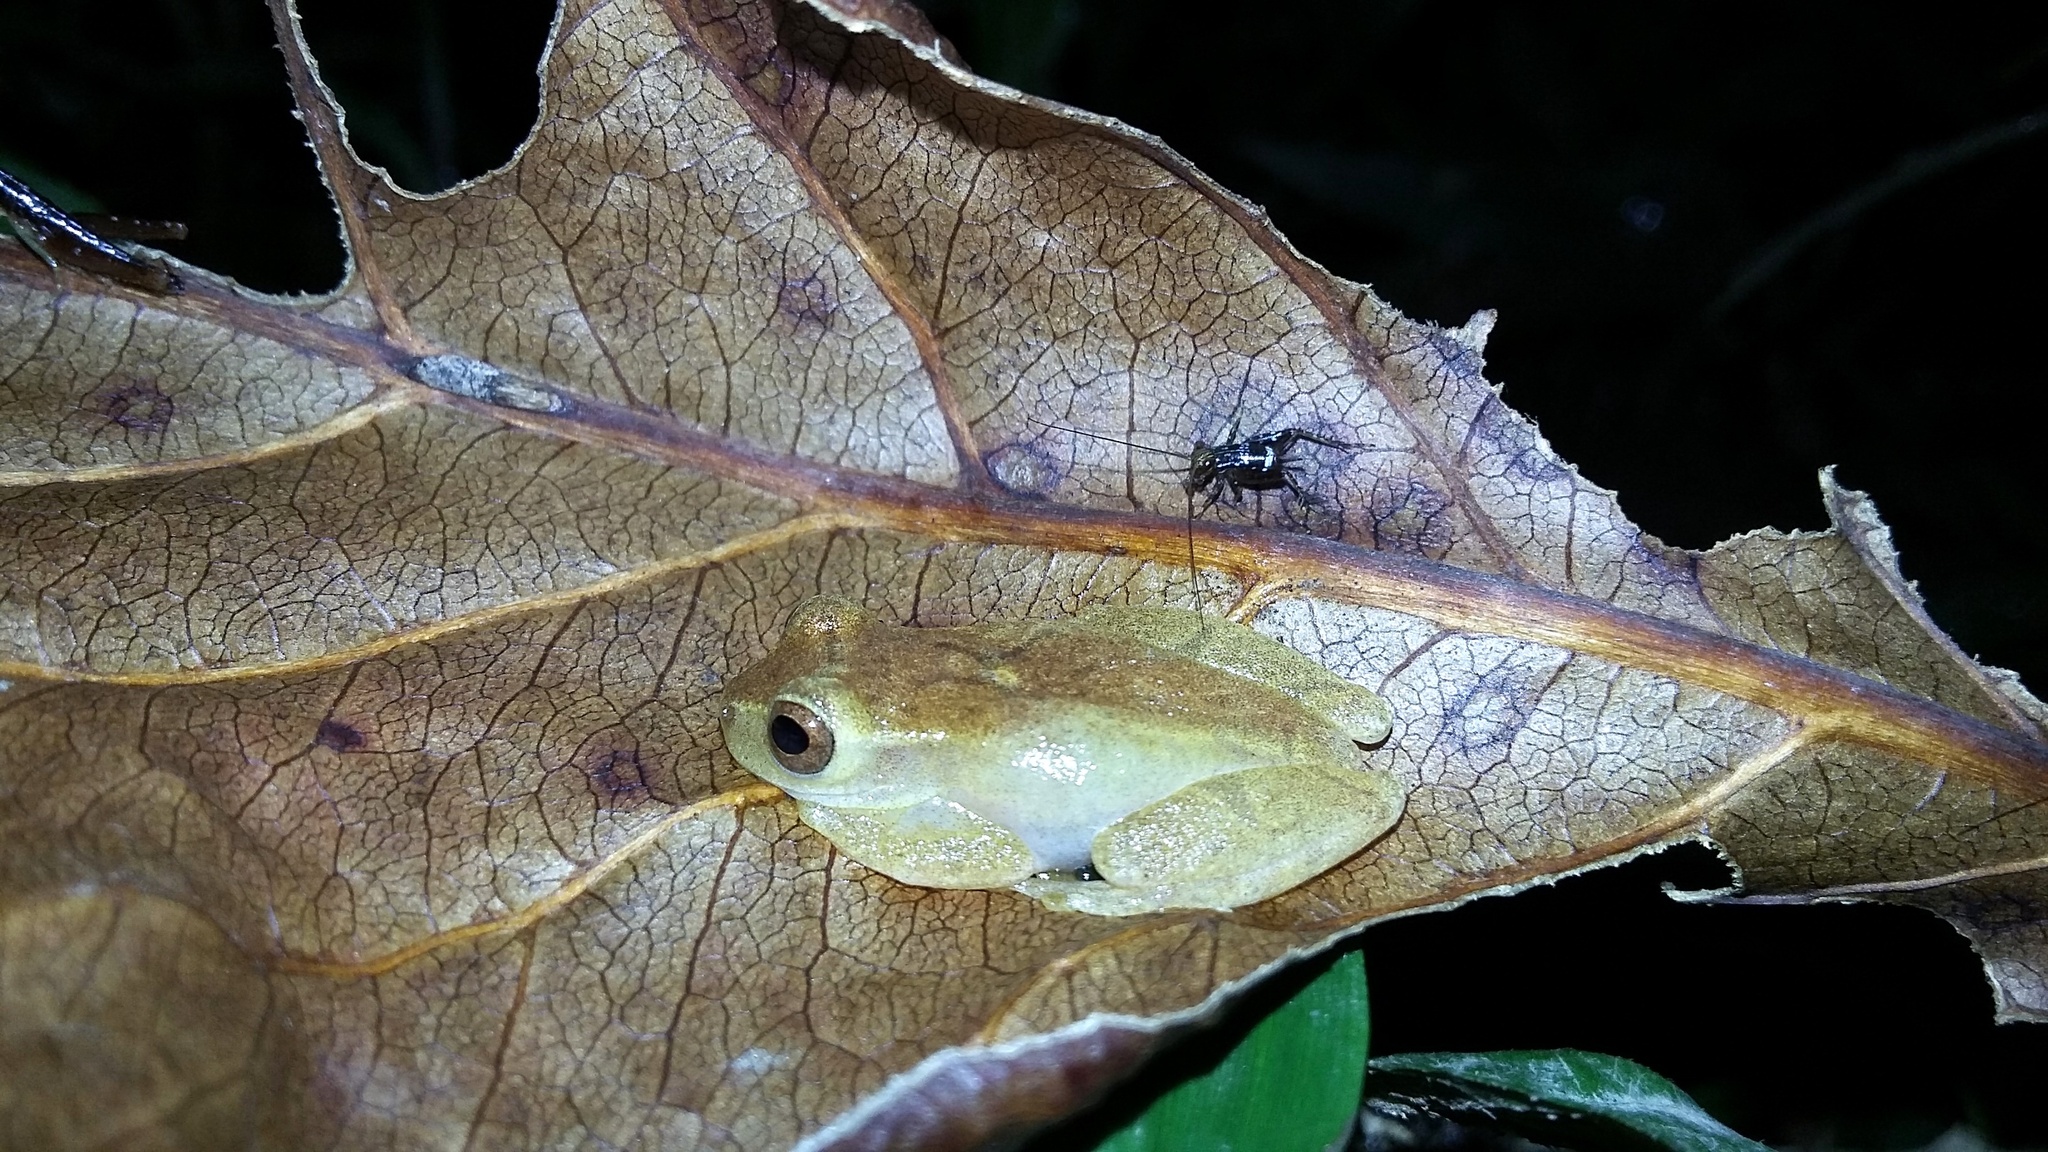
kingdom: Animalia
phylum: Chordata
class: Amphibia
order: Anura
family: Hylidae
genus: Dendropsophus
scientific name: Dendropsophus phlebodes
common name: San carlos treefrog
